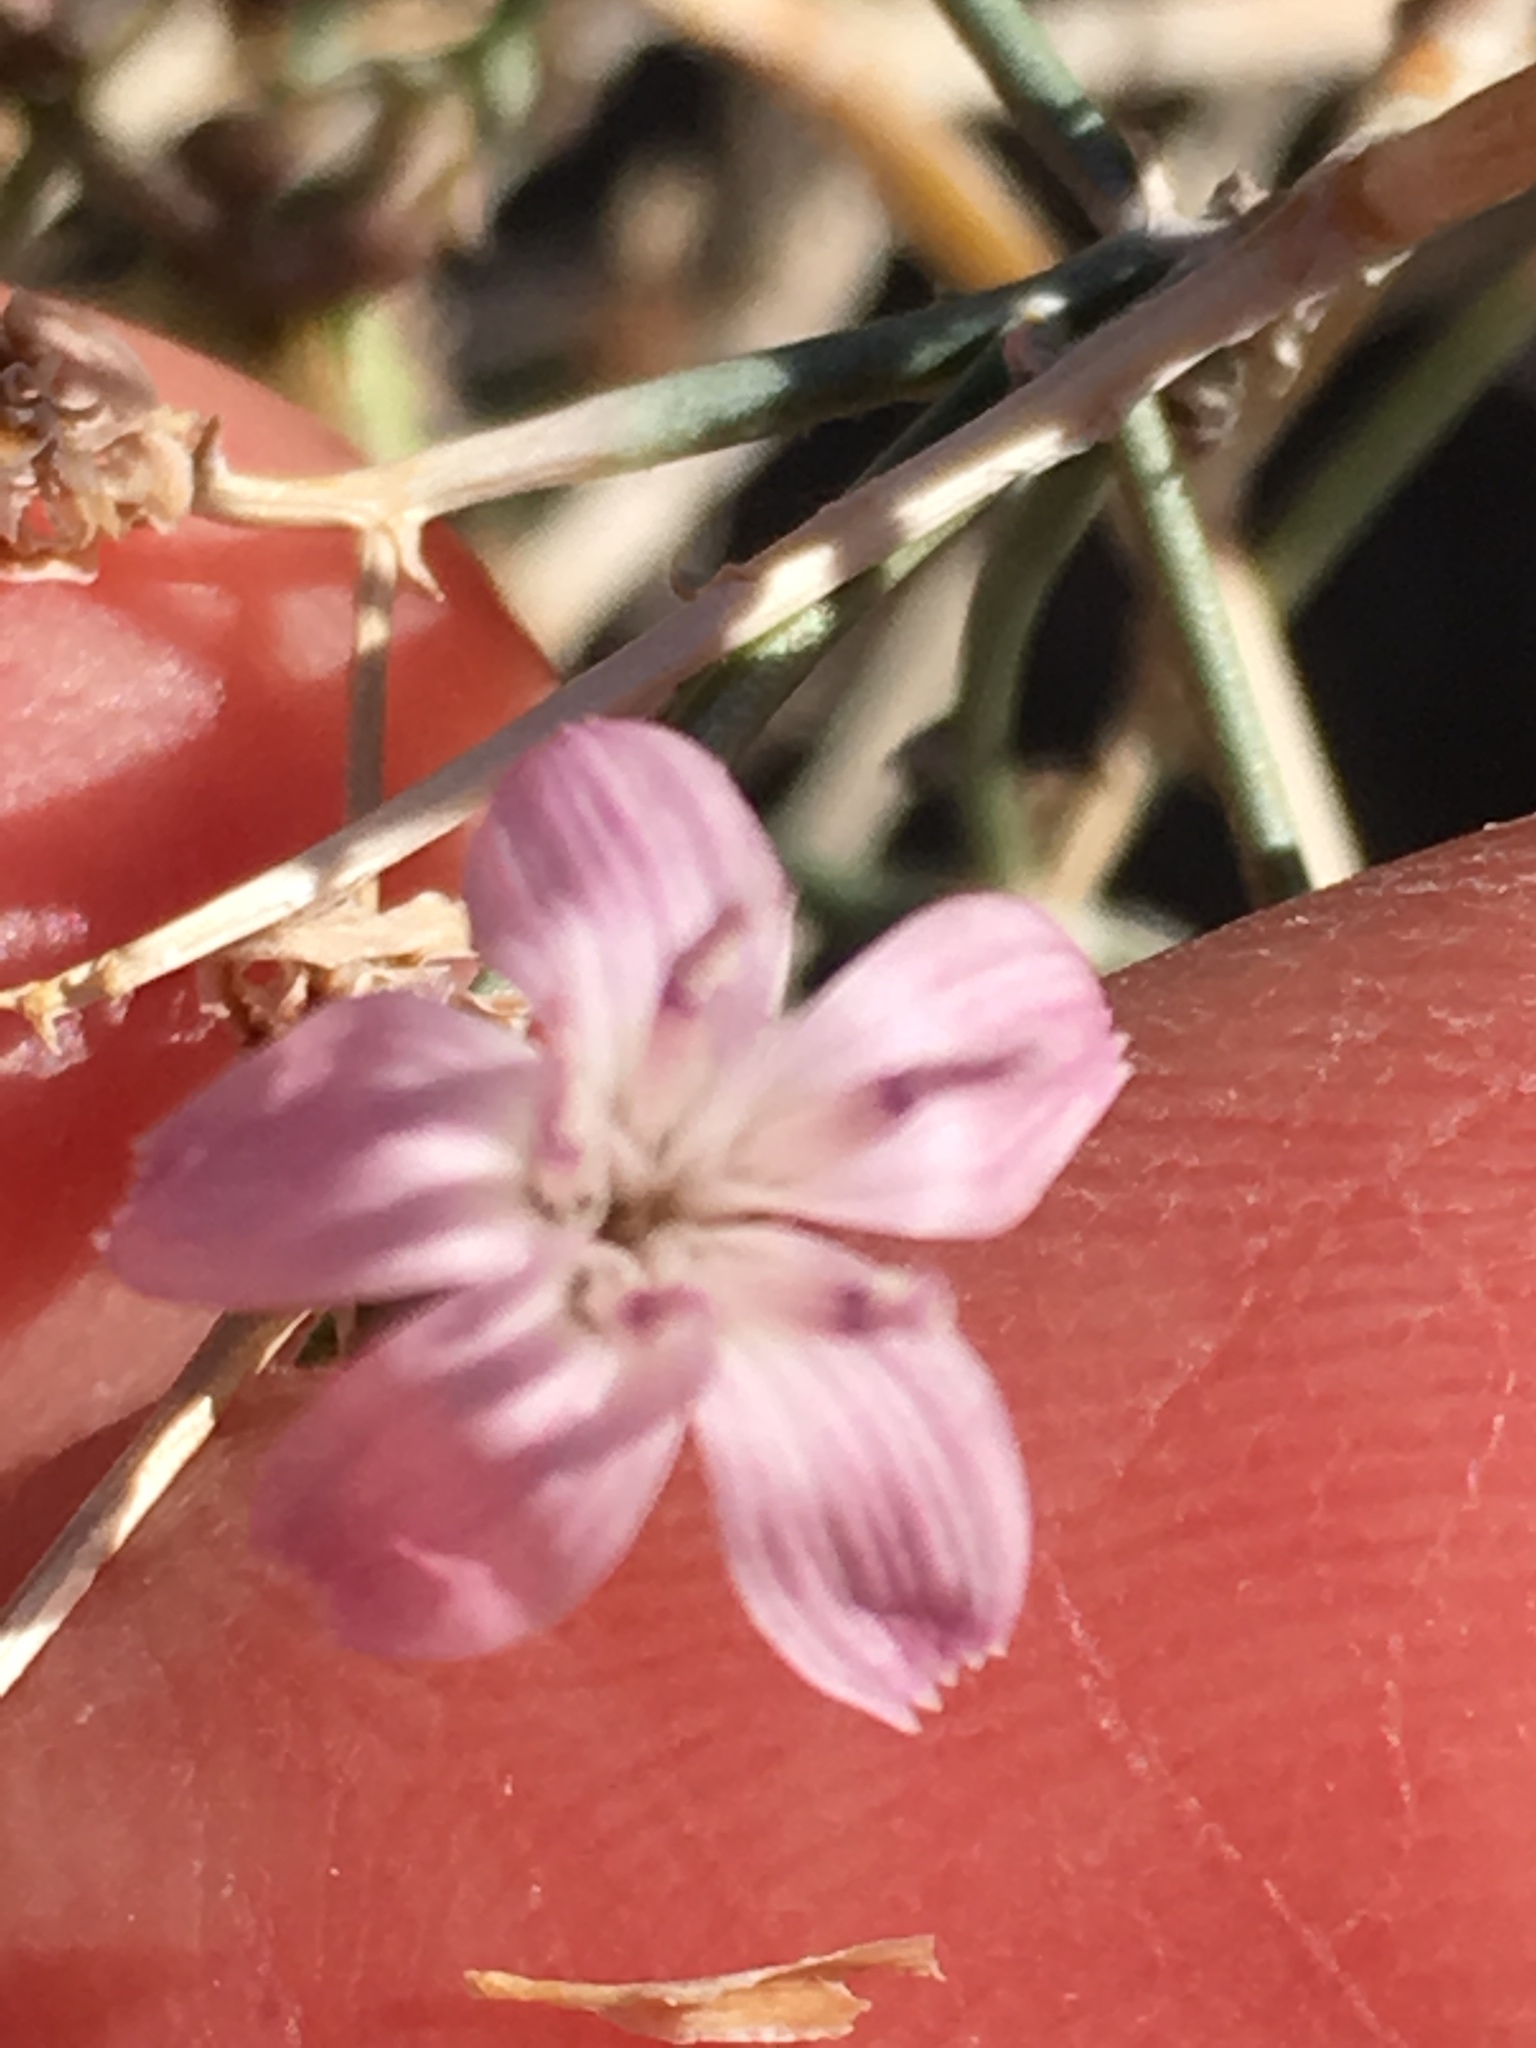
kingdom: Plantae
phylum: Tracheophyta
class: Magnoliopsida
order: Asterales
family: Asteraceae
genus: Stephanomeria
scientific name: Stephanomeria pauciflora
